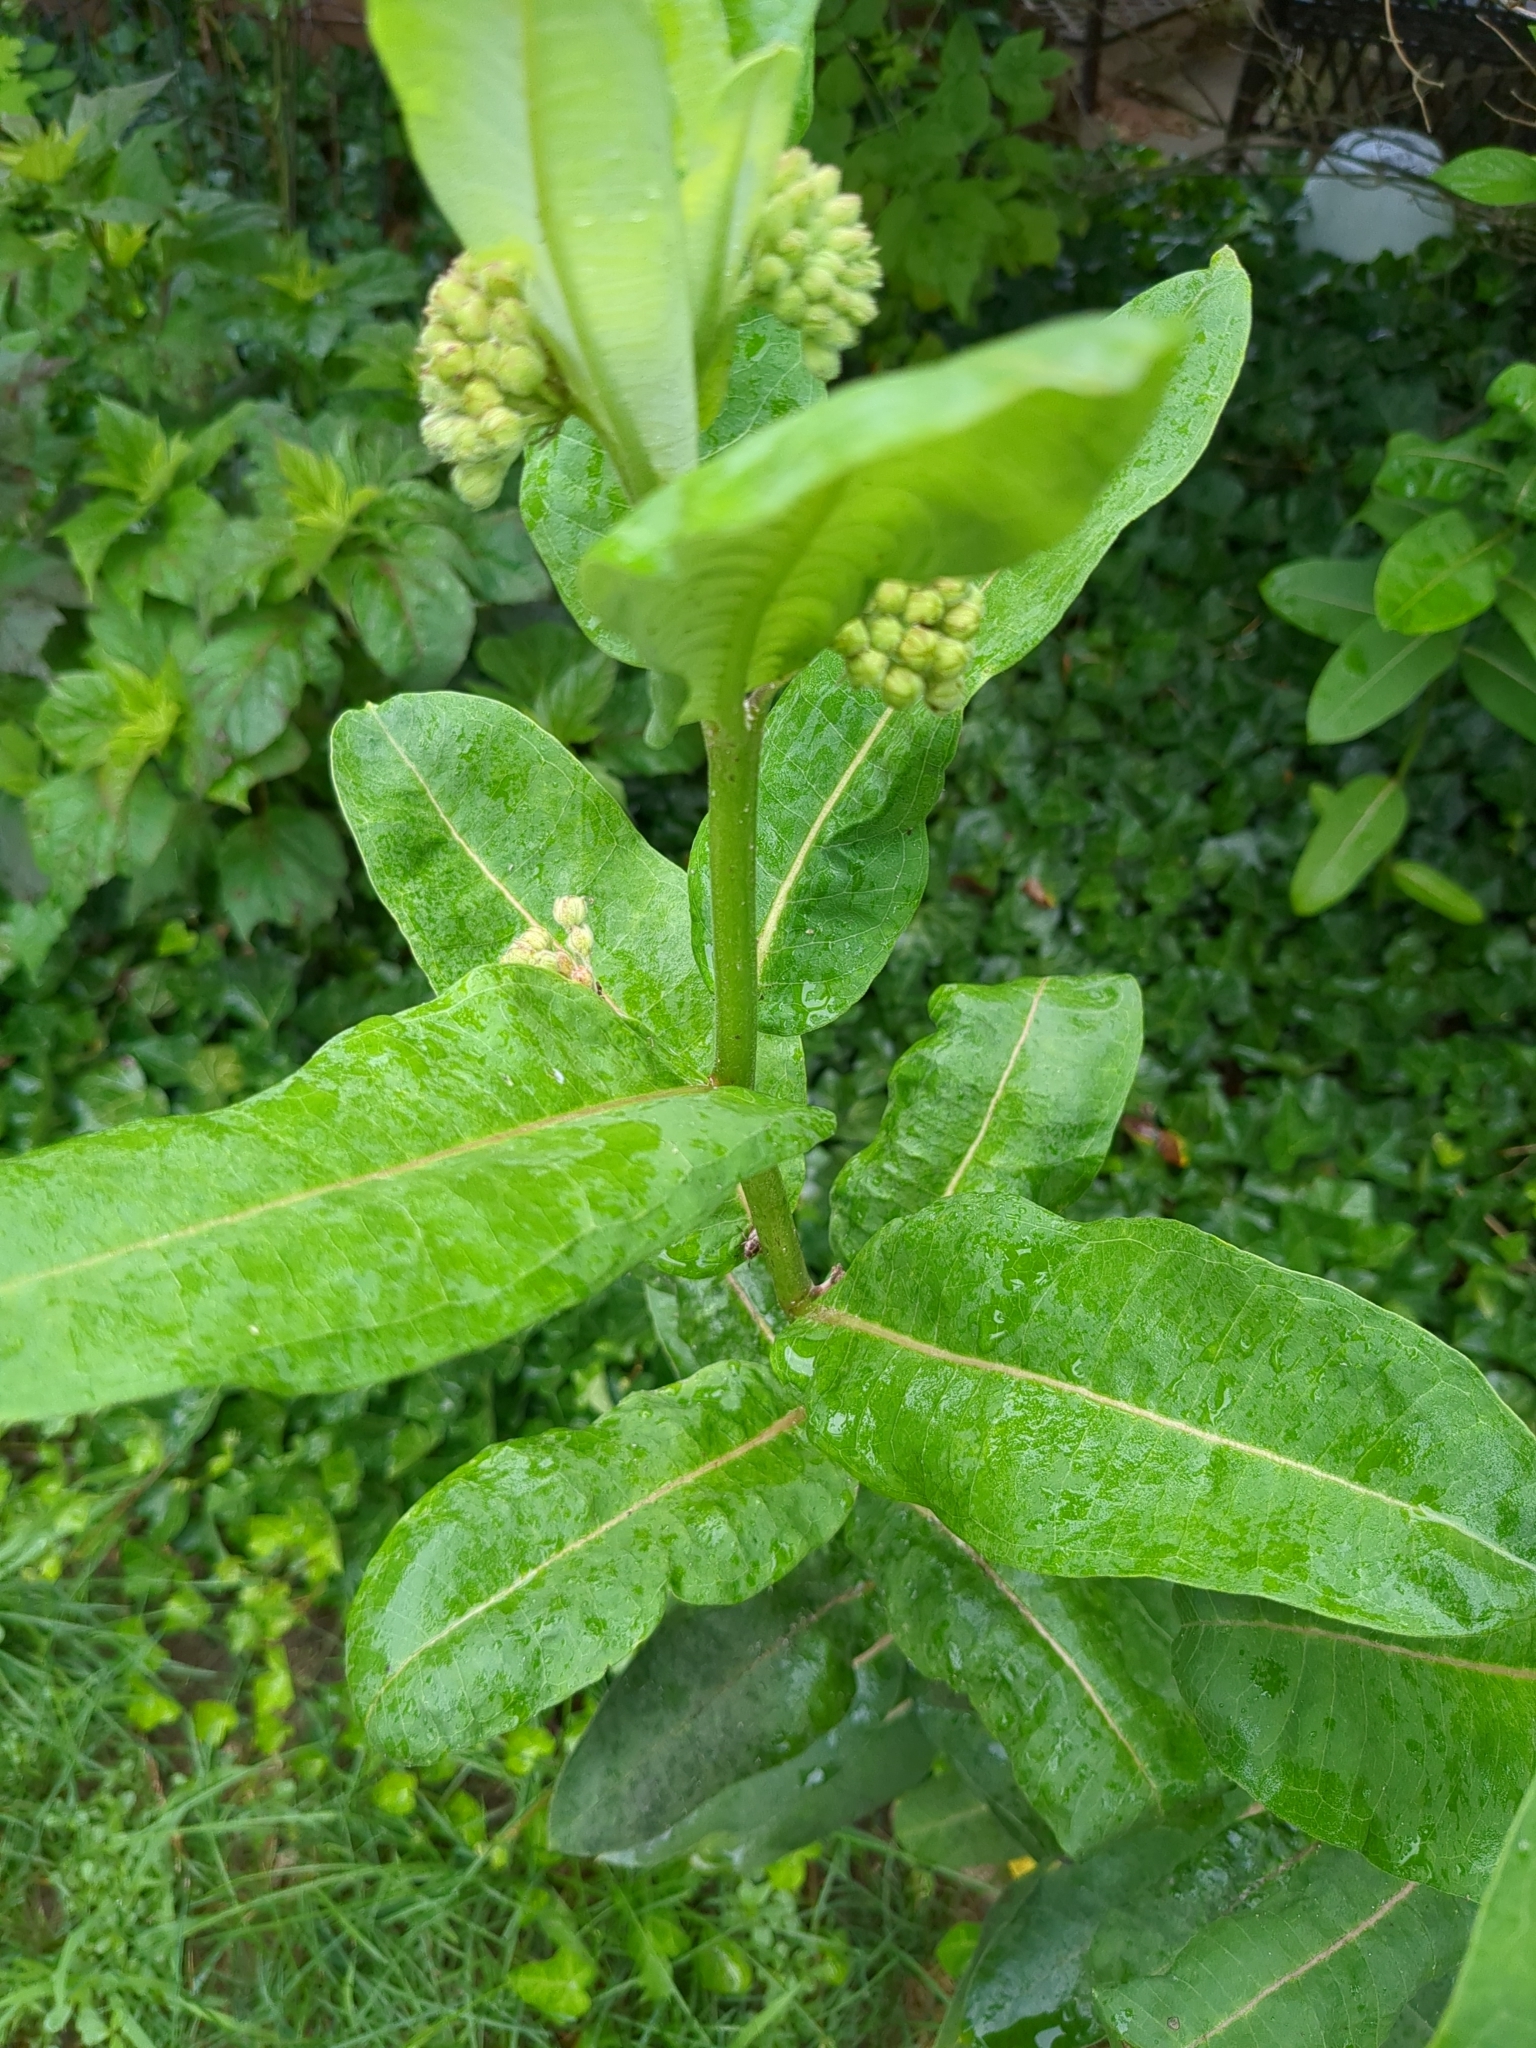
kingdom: Plantae
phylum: Tracheophyta
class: Magnoliopsida
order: Gentianales
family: Apocynaceae
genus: Asclepias
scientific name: Asclepias syriaca
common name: Common milkweed
